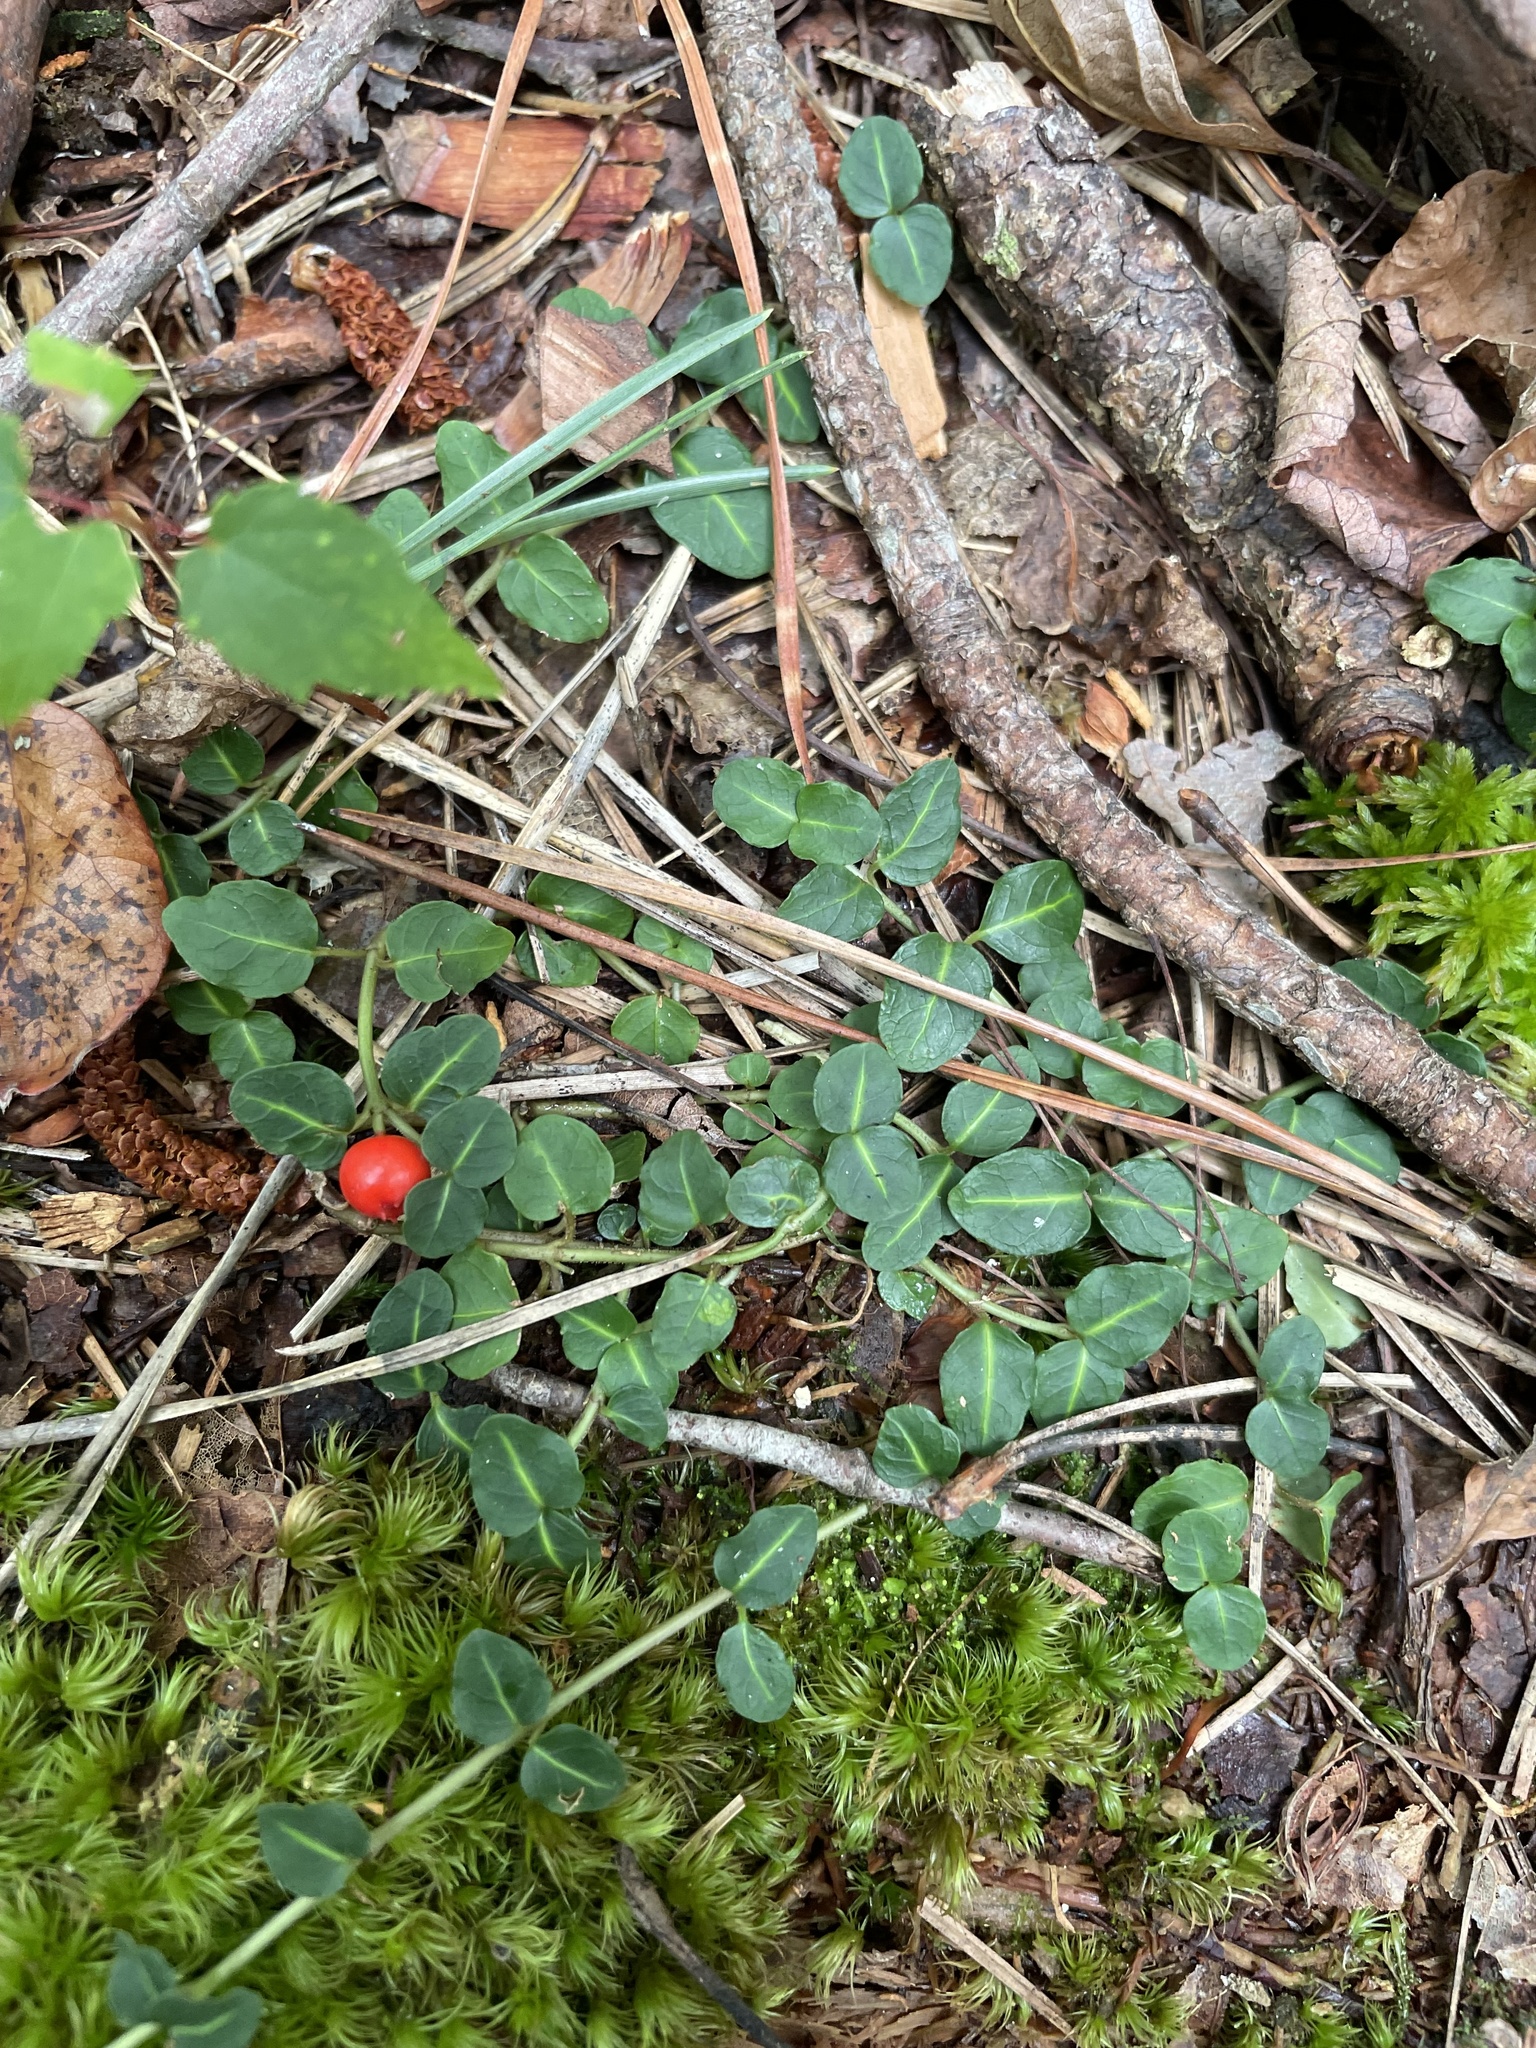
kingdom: Plantae
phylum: Tracheophyta
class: Magnoliopsida
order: Gentianales
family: Rubiaceae
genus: Mitchella
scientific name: Mitchella repens
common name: Partridge-berry
